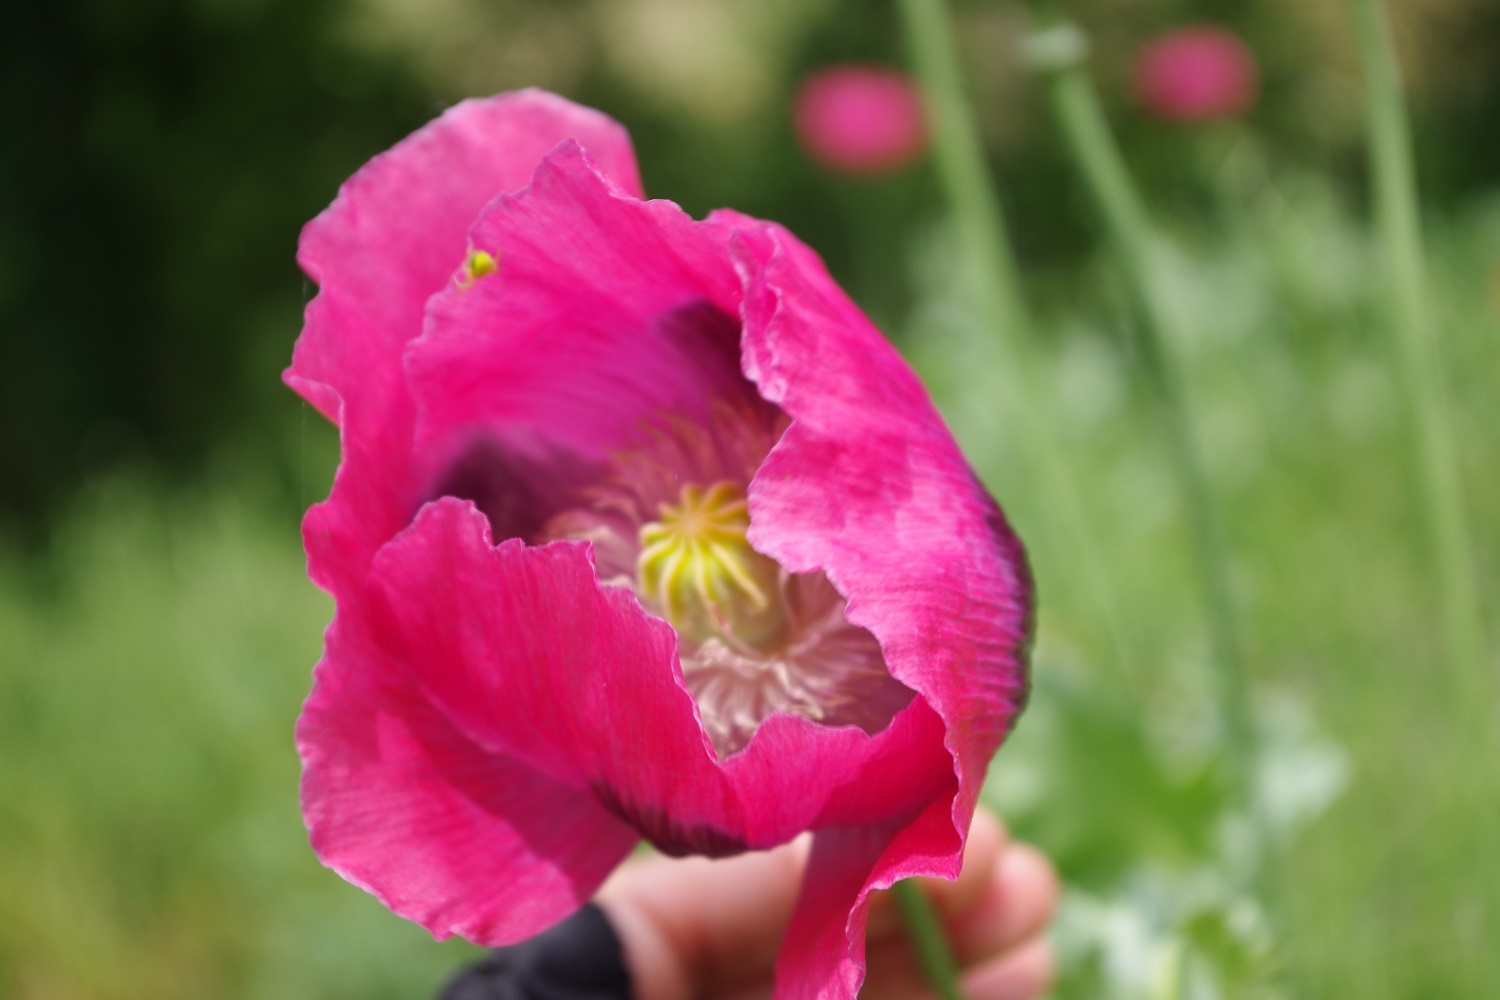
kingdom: Plantae
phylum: Tracheophyta
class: Magnoliopsida
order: Ranunculales
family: Papaveraceae
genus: Papaver
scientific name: Papaver somniferum
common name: Opium poppy
